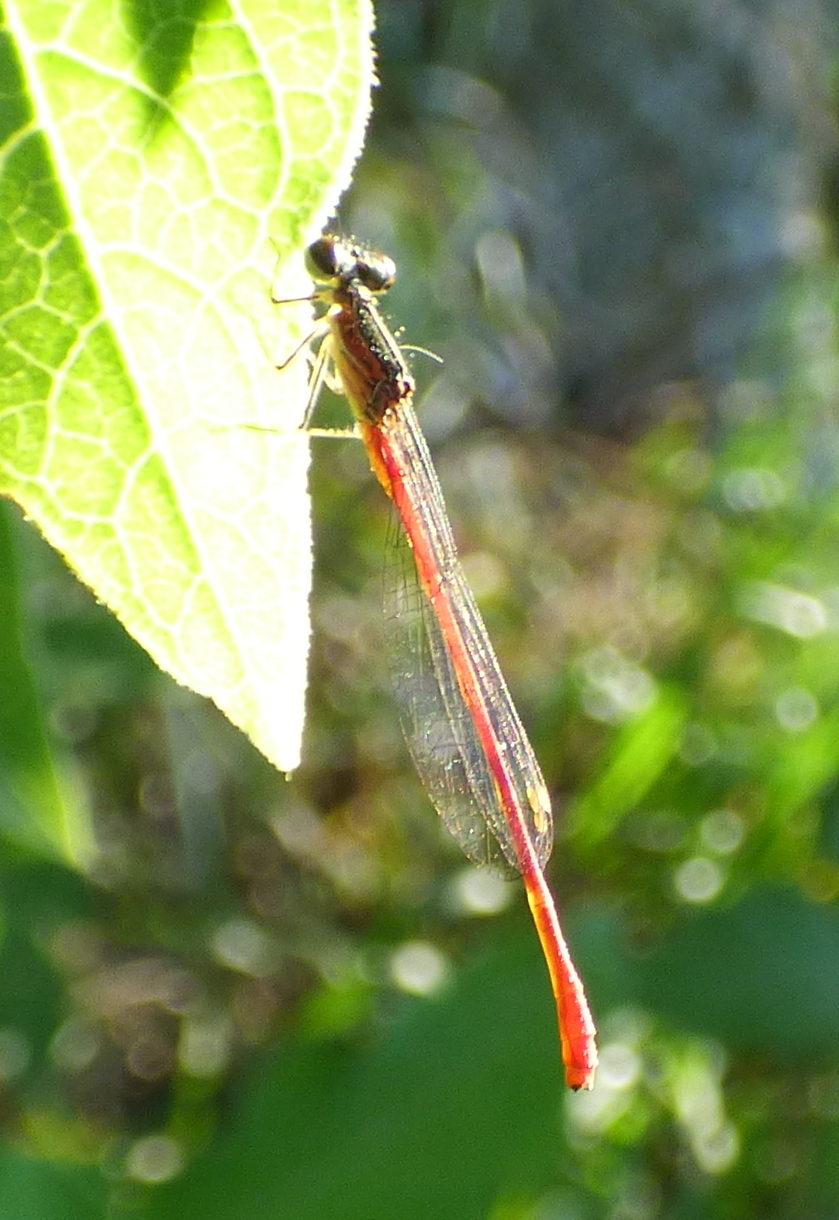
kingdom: Animalia
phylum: Arthropoda
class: Insecta
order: Odonata
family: Coenagrionidae
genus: Telebasis
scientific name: Telebasis willinki
